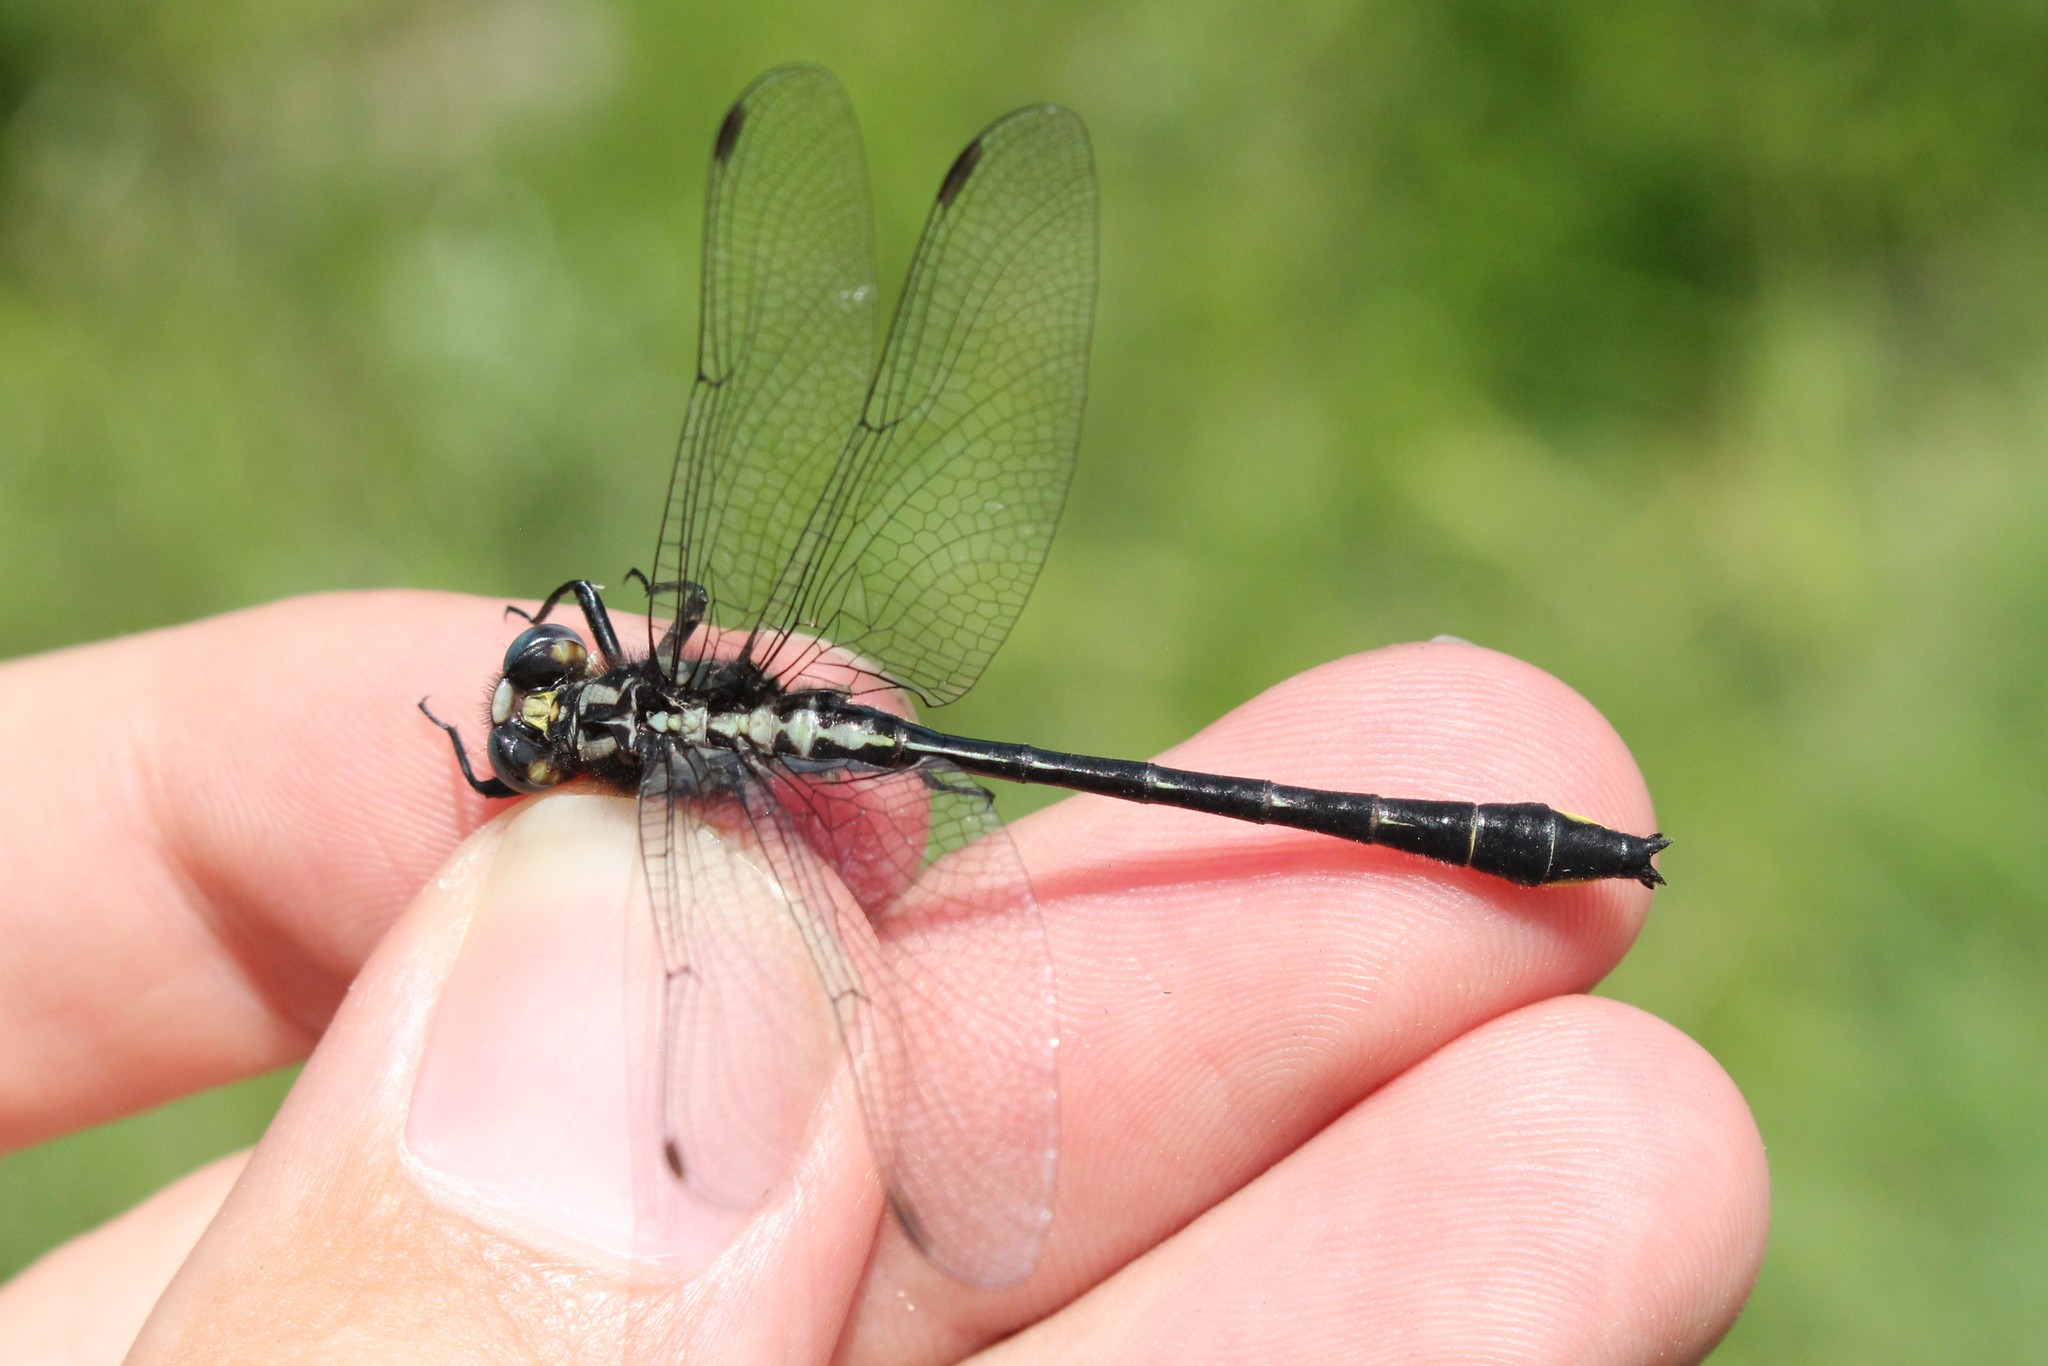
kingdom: Animalia
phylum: Arthropoda
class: Insecta
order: Odonata
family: Gomphidae
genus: Phanogomphus
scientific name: Phanogomphus quadricolor
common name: Rapids clubtail
